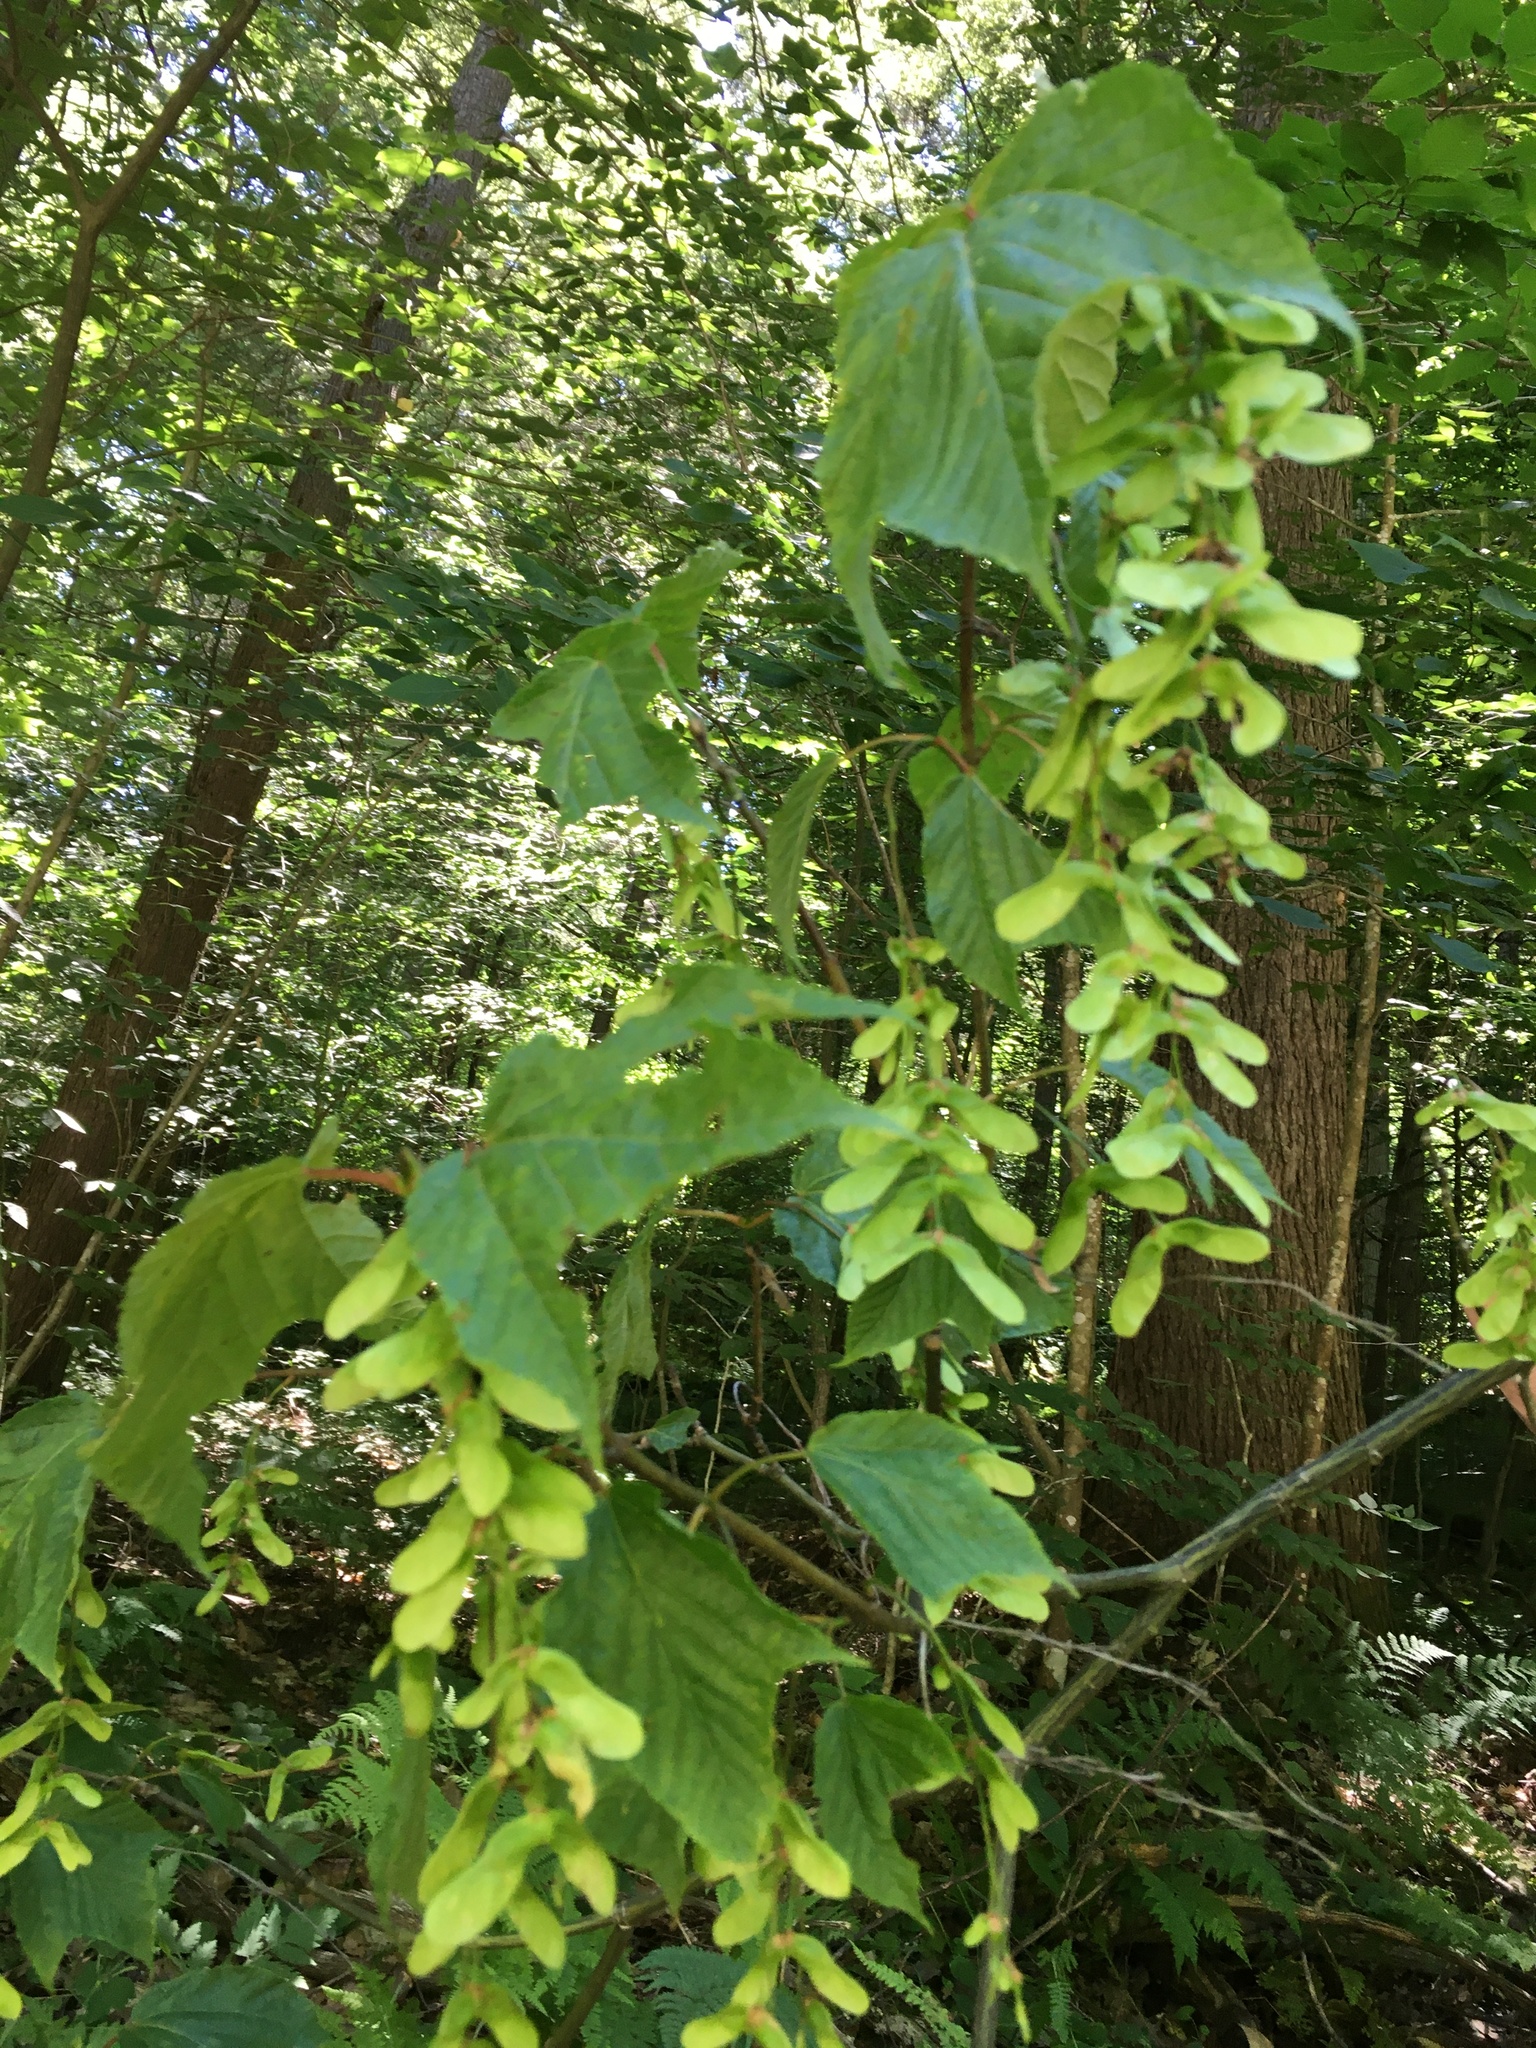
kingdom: Plantae
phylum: Tracheophyta
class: Magnoliopsida
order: Sapindales
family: Sapindaceae
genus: Acer
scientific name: Acer pensylvanicum
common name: Moosewood
